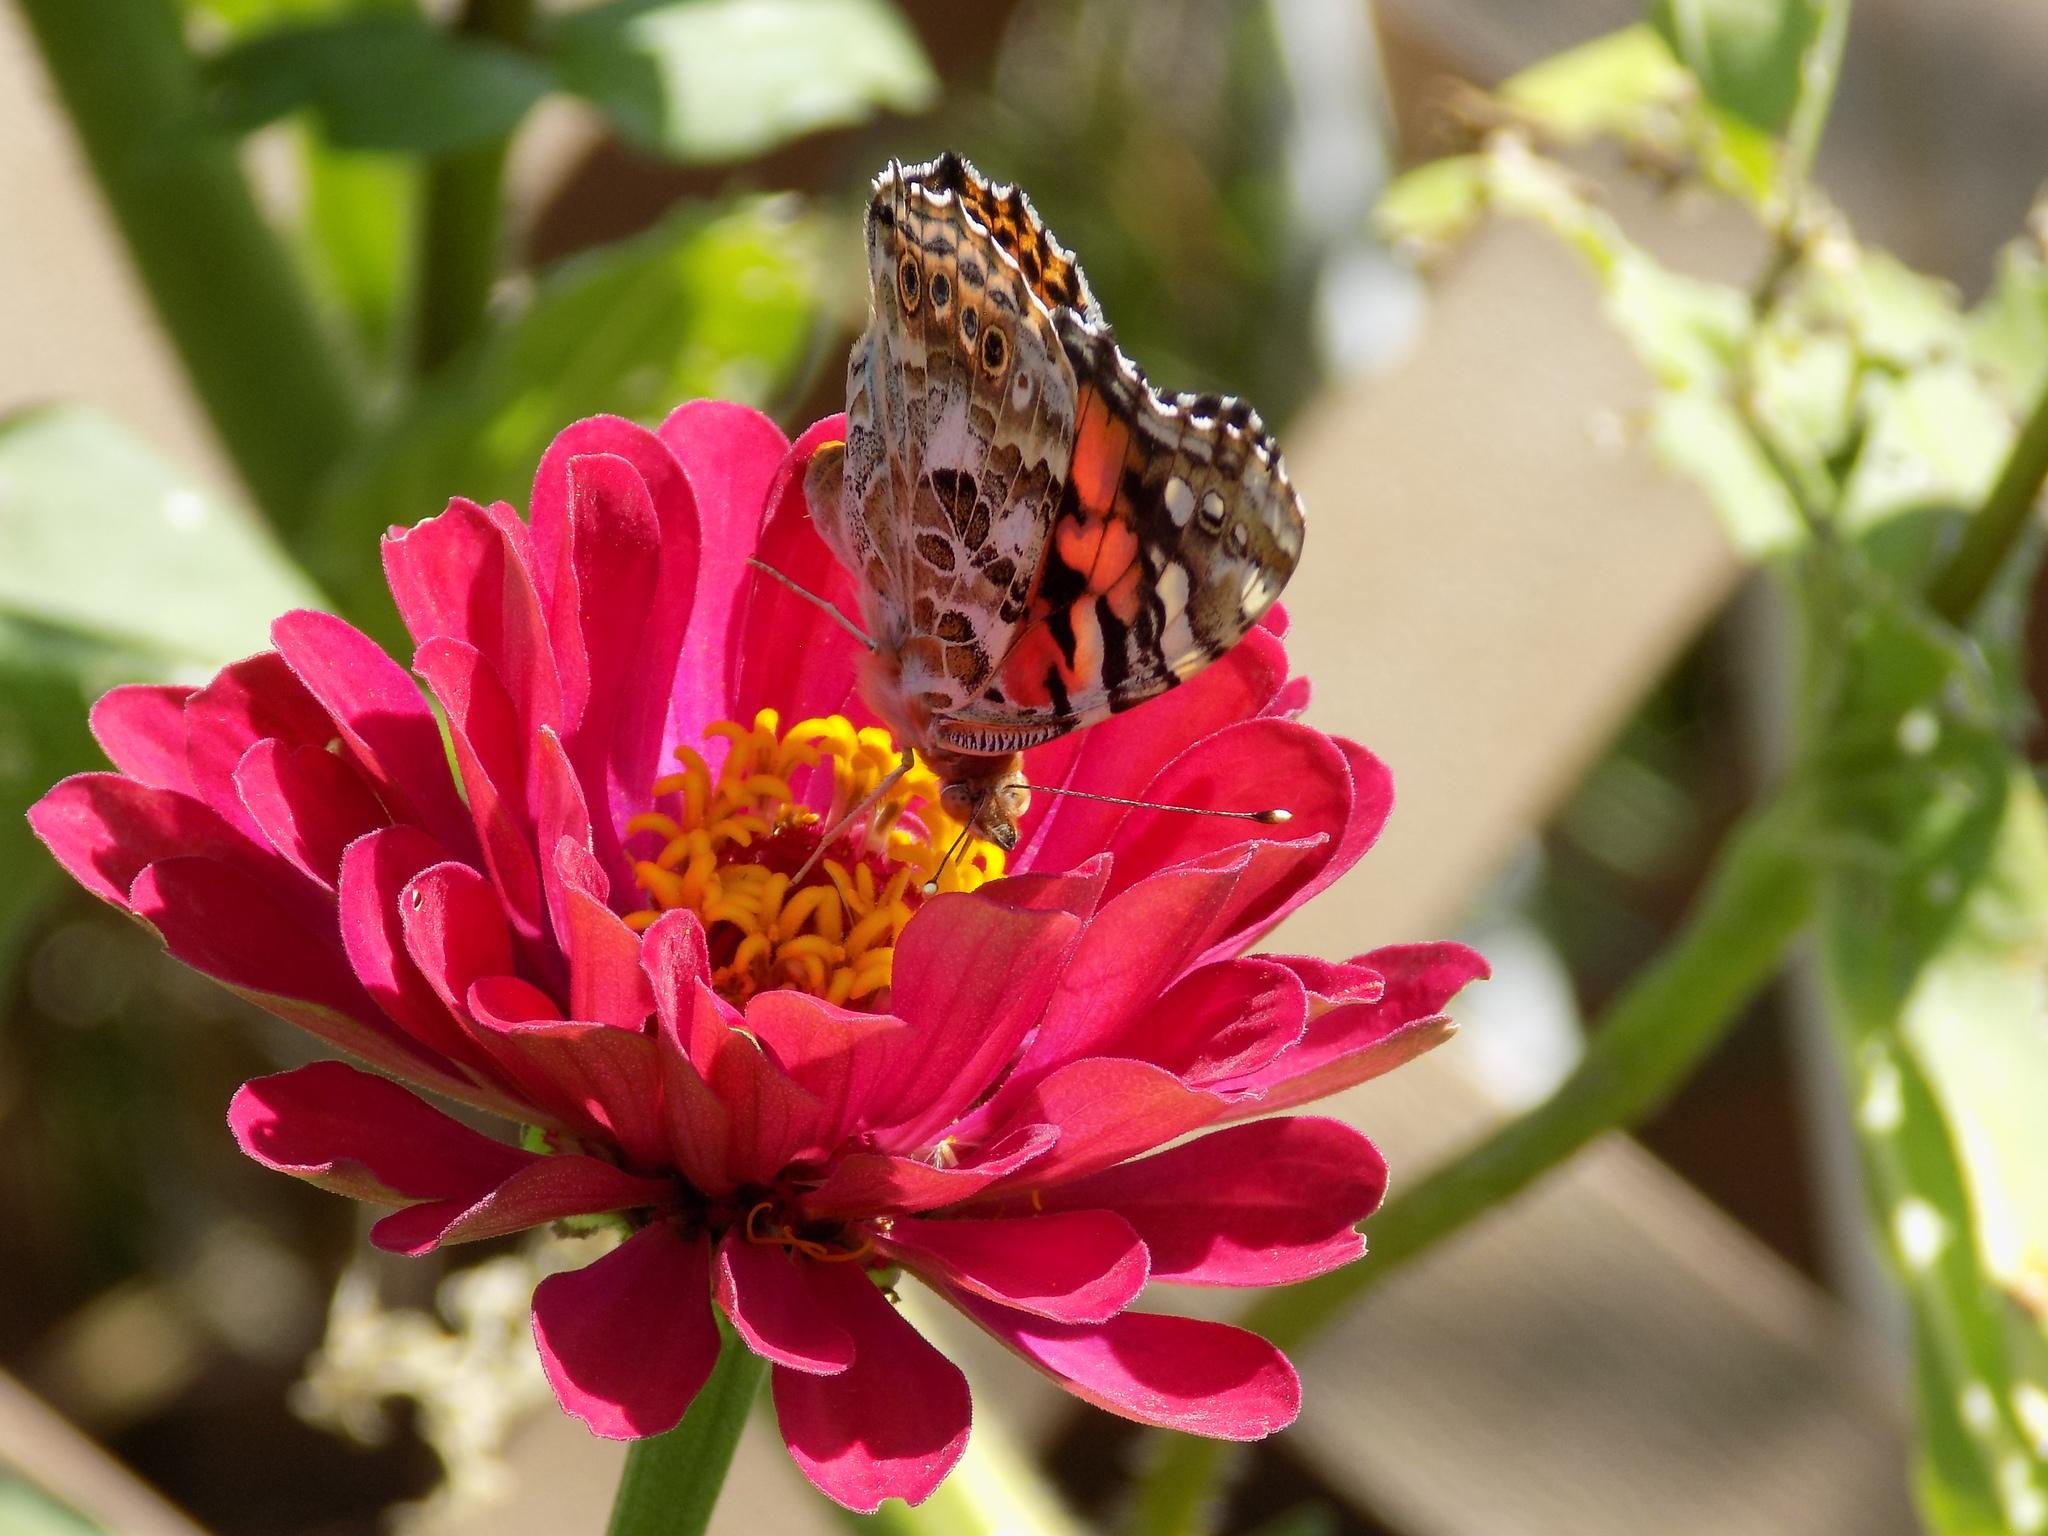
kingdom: Animalia
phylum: Arthropoda
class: Insecta
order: Lepidoptera
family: Nymphalidae
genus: Vanessa
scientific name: Vanessa cardui
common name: Painted lady
